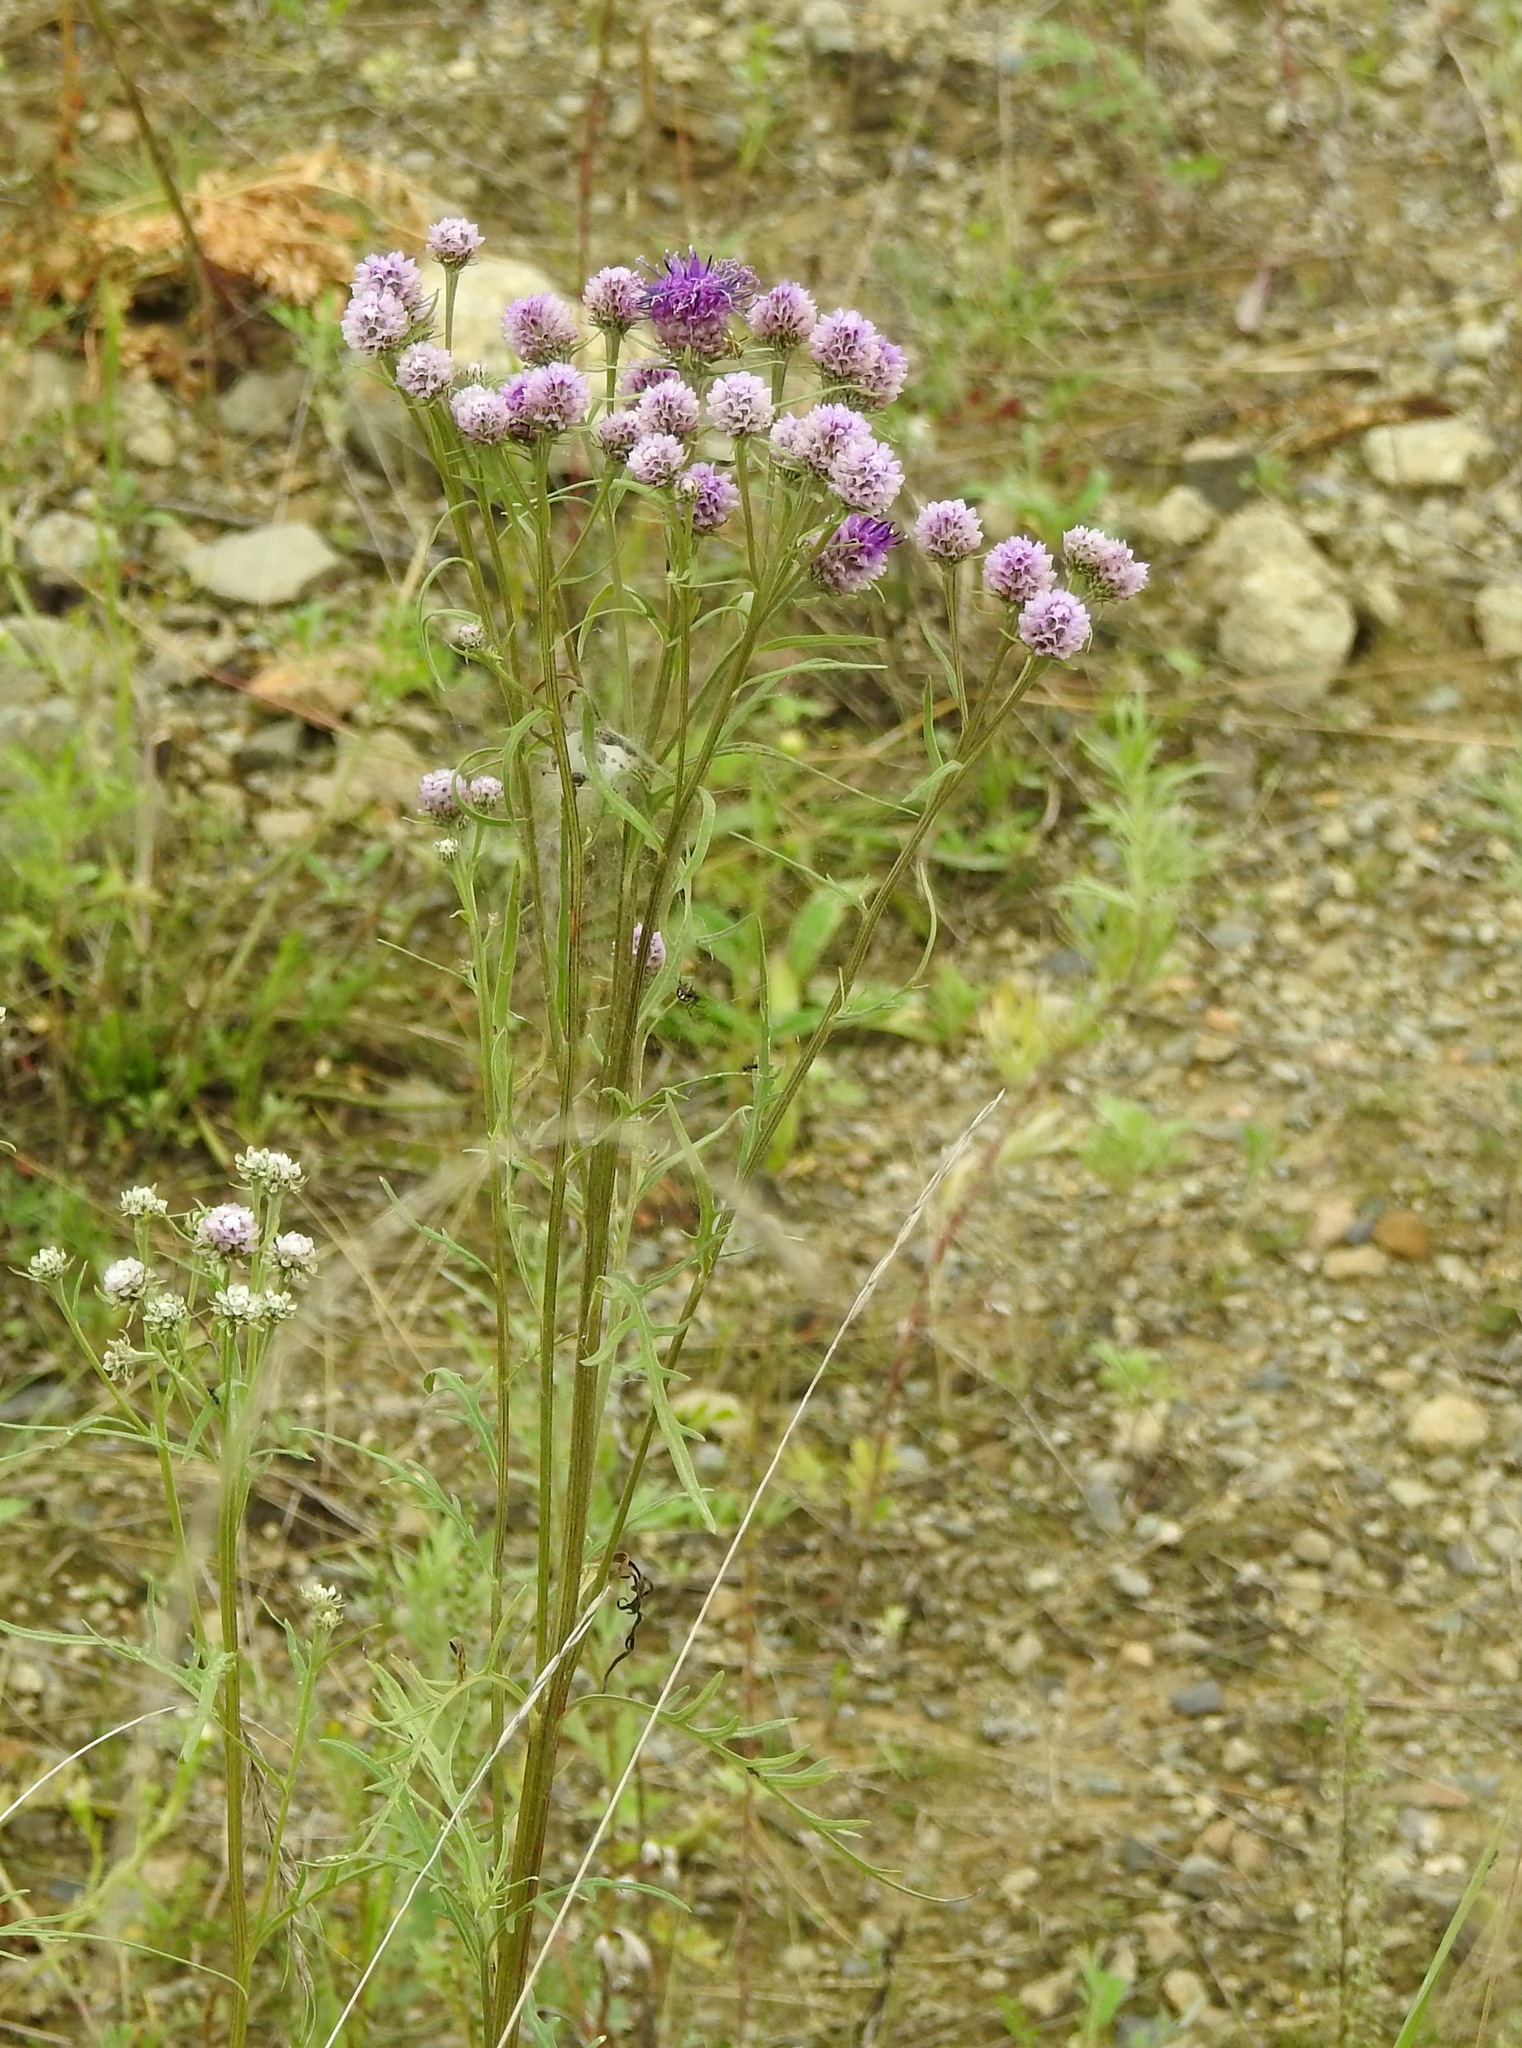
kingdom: Plantae
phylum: Tracheophyta
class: Magnoliopsida
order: Asterales
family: Asteraceae
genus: Saussurea
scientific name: Saussurea amara
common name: Alberta sawwort
